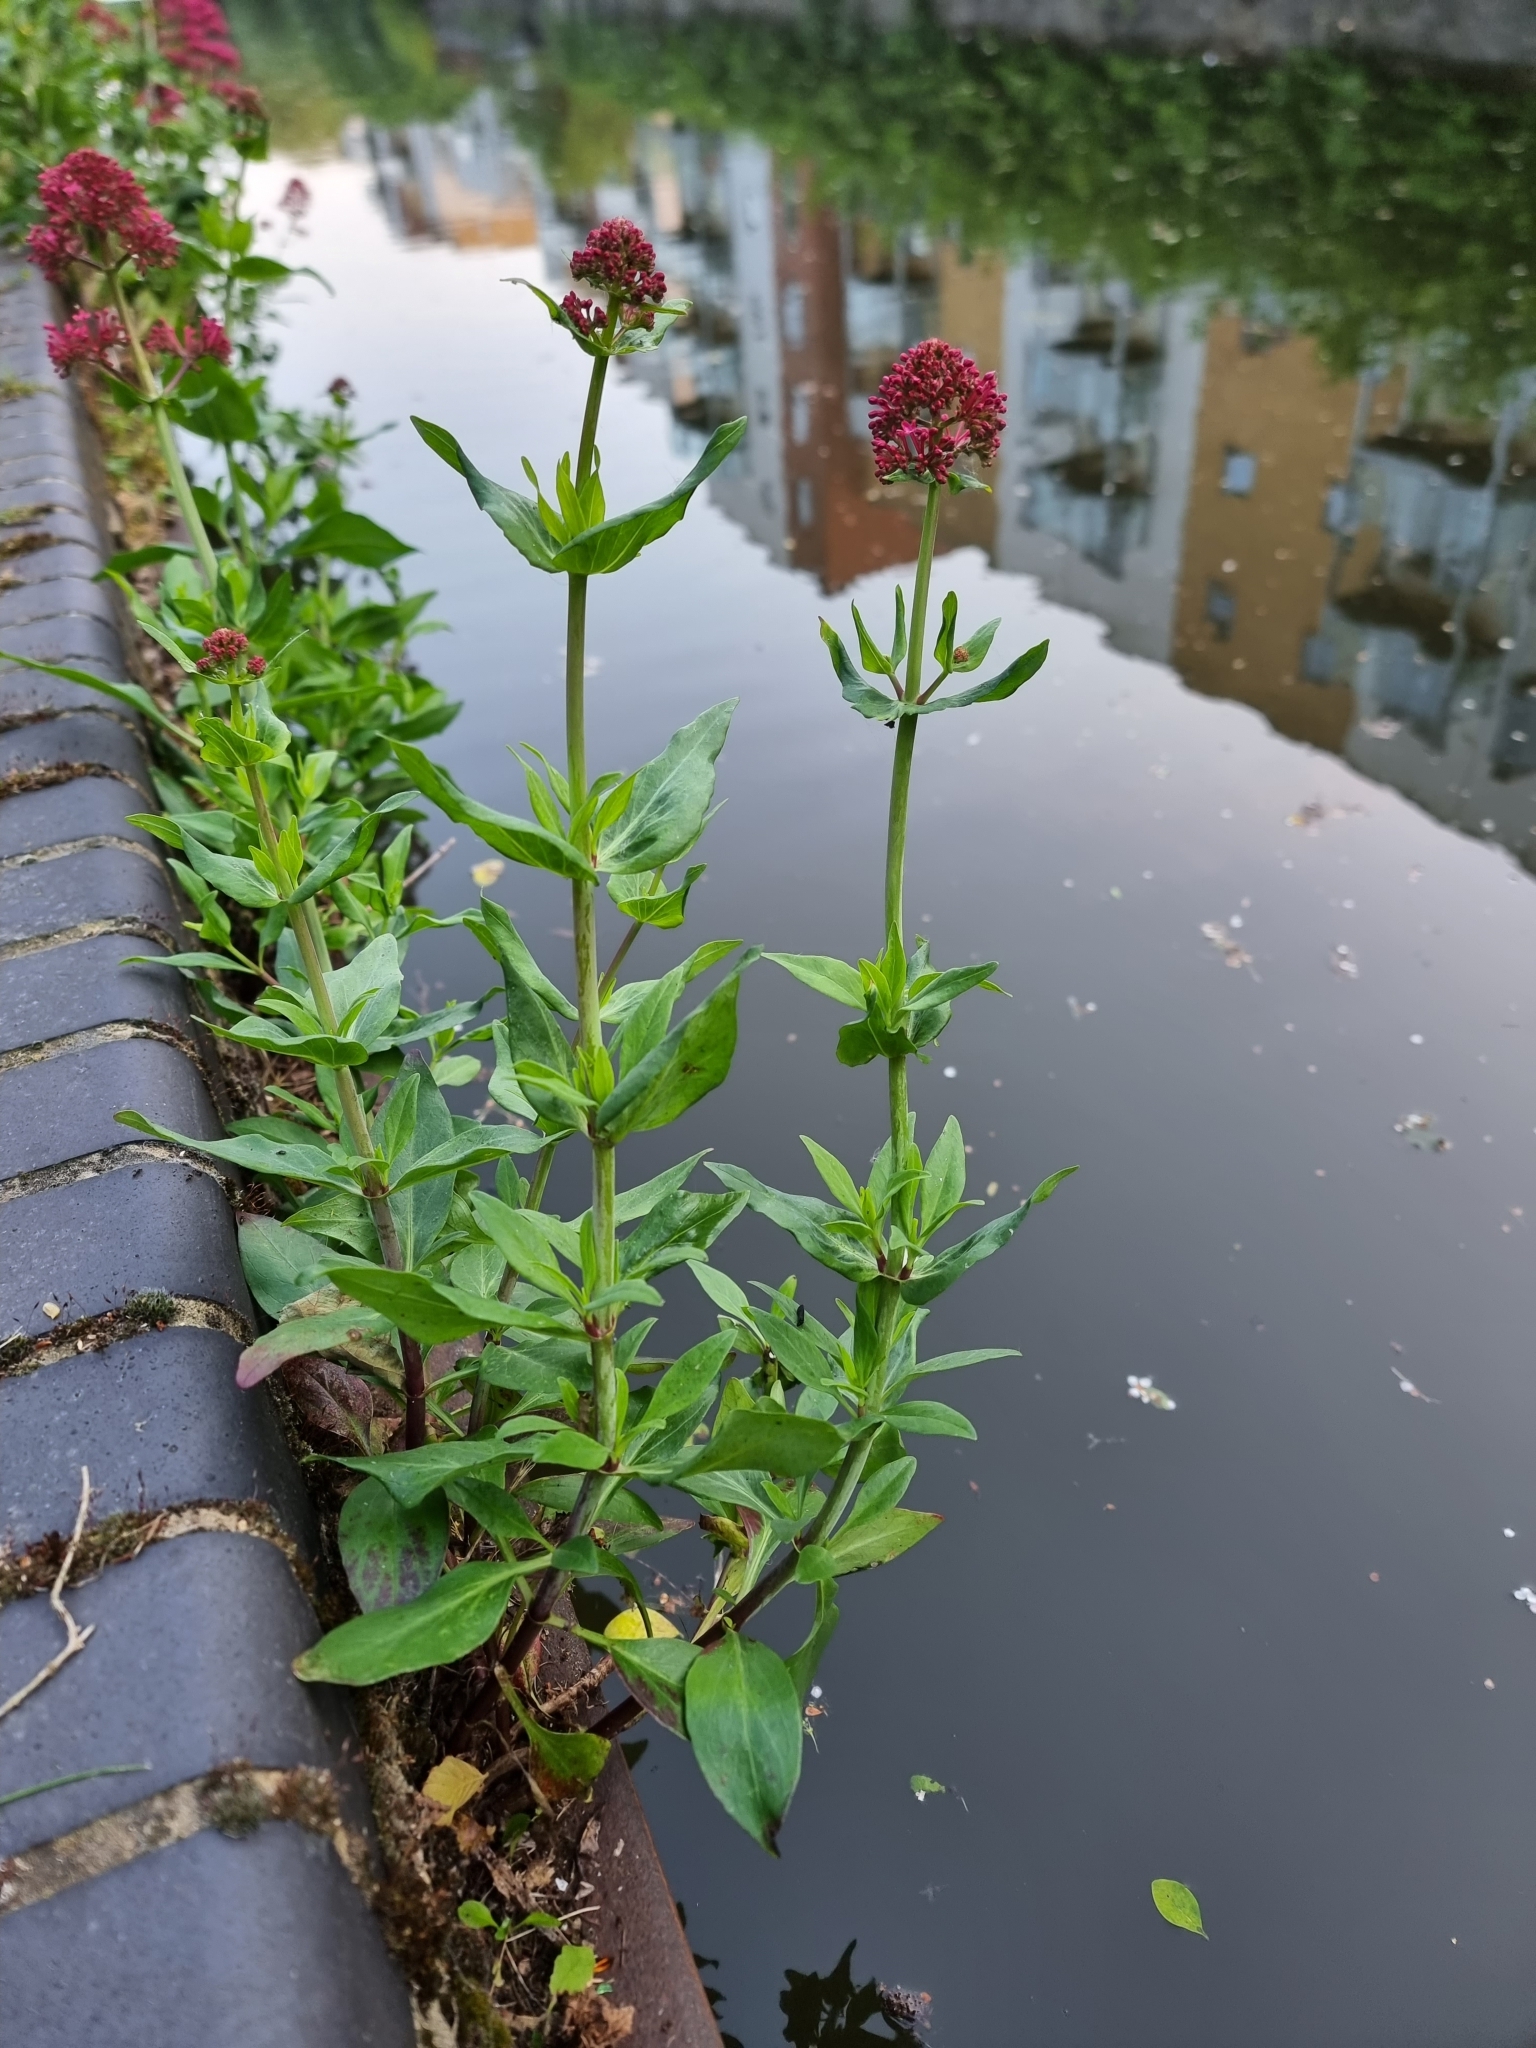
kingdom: Plantae
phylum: Tracheophyta
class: Magnoliopsida
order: Dipsacales
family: Caprifoliaceae
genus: Centranthus
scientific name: Centranthus ruber
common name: Red valerian
